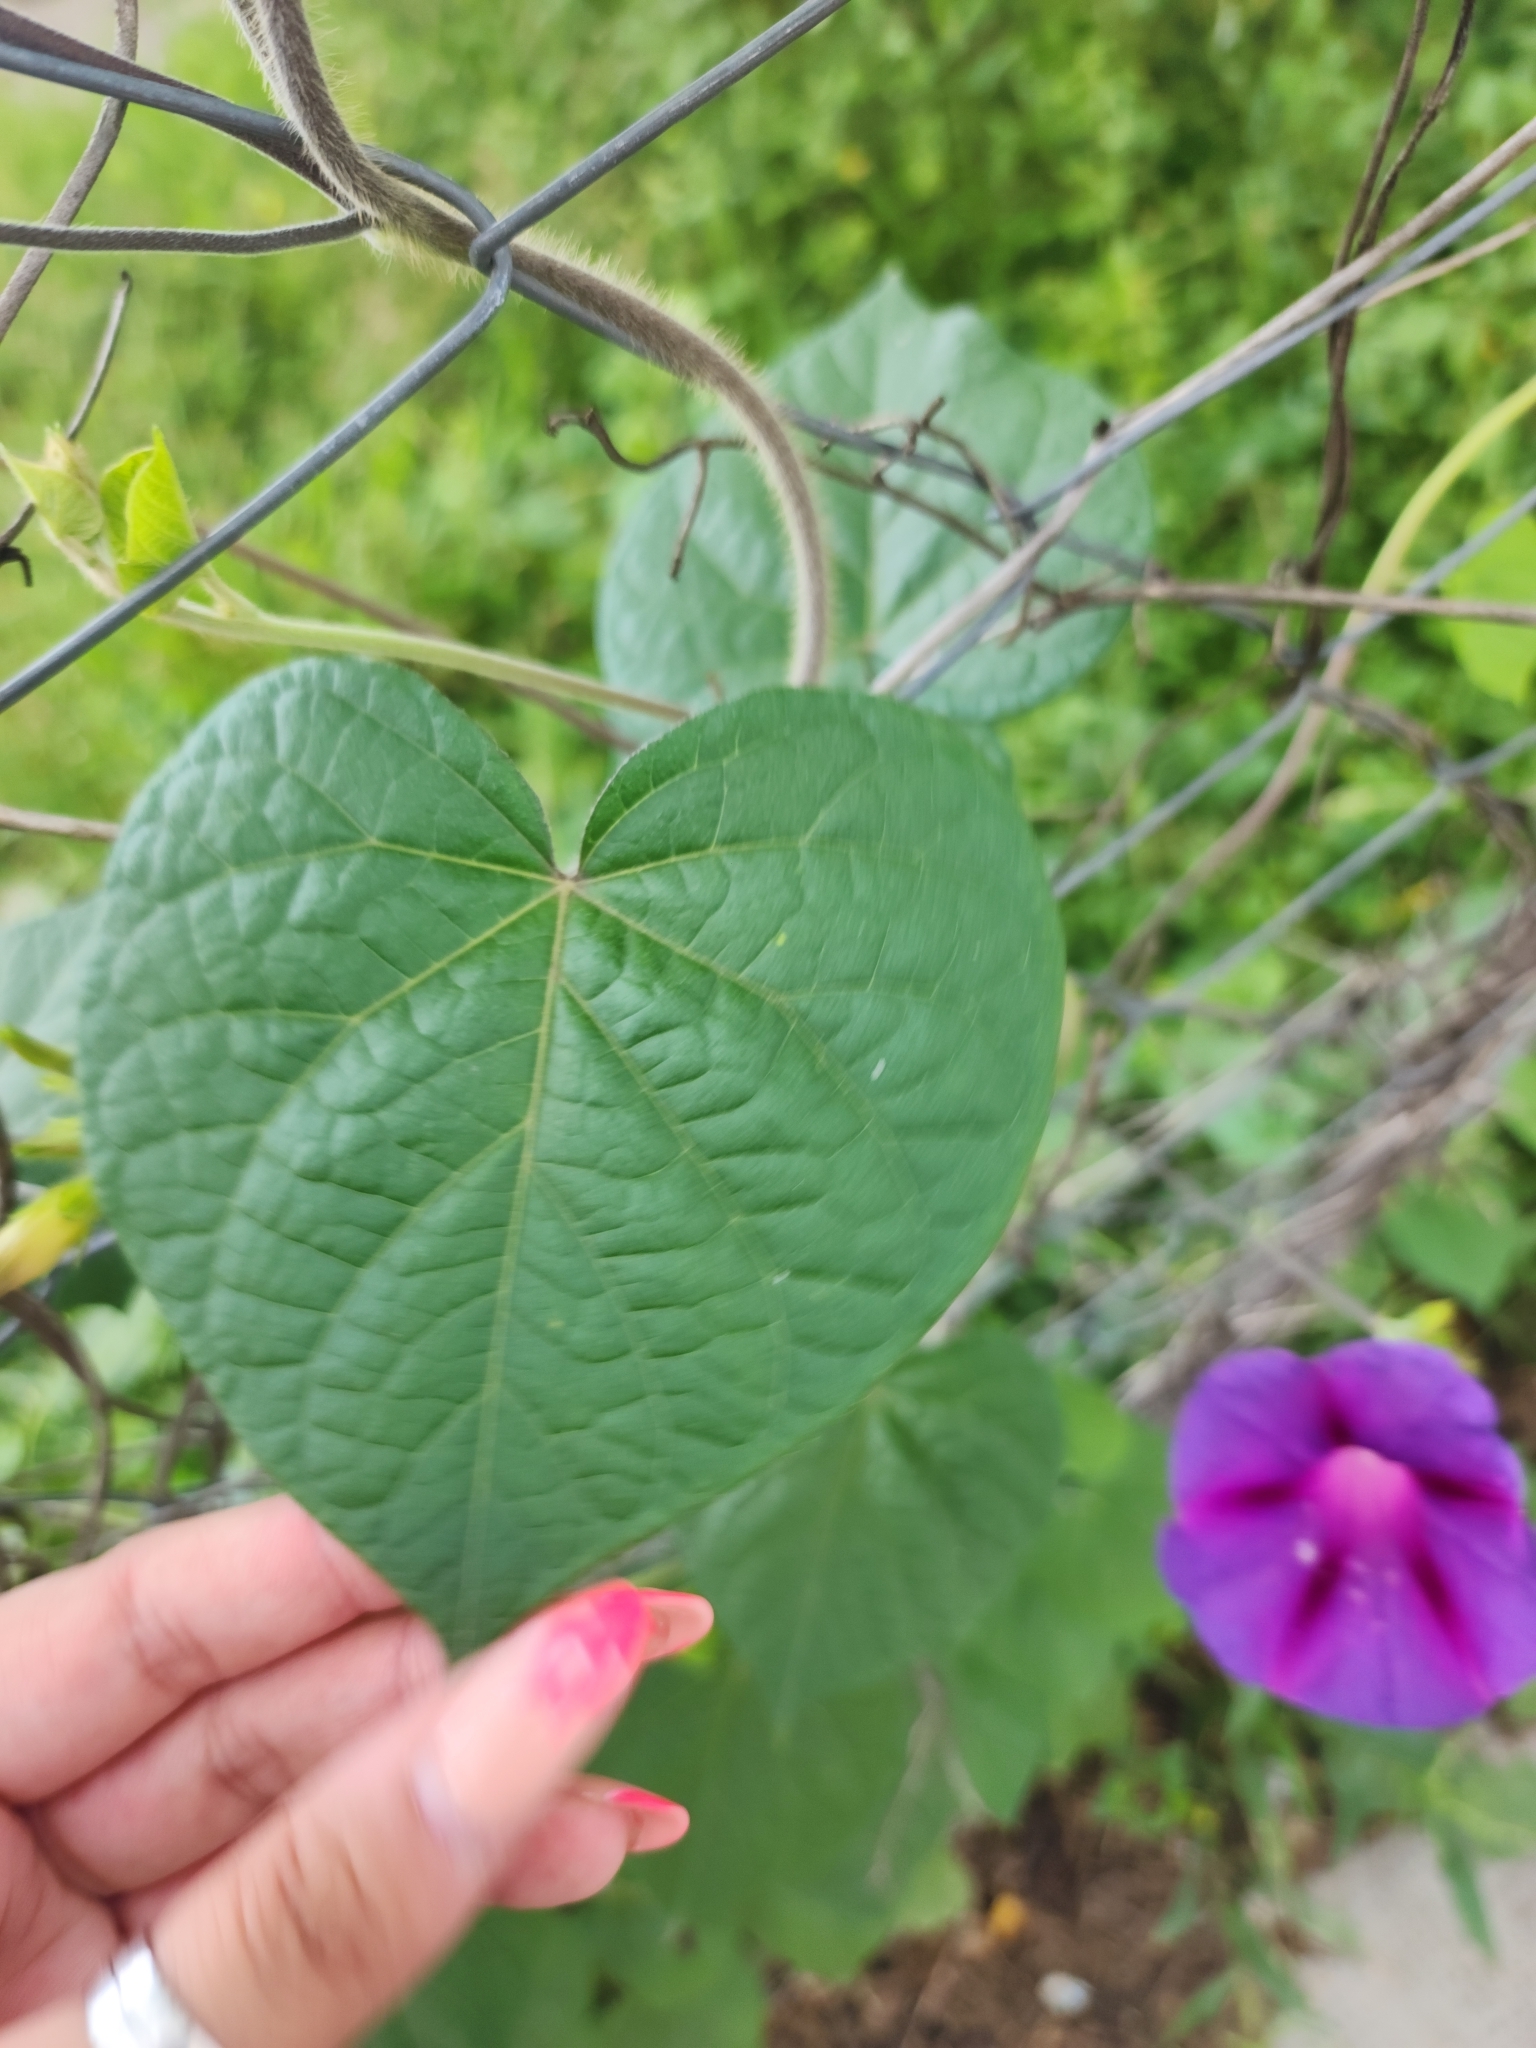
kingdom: Plantae
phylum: Tracheophyta
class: Magnoliopsida
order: Solanales
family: Convolvulaceae
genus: Ipomoea
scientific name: Ipomoea purpurea
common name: Common morning-glory
